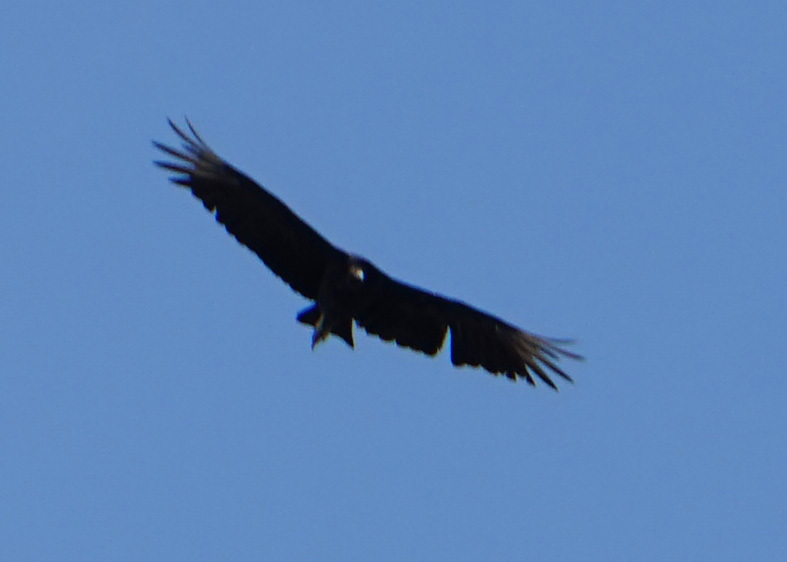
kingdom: Animalia
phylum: Chordata
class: Aves
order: Accipitriformes
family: Cathartidae
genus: Coragyps
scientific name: Coragyps atratus
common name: Black vulture
